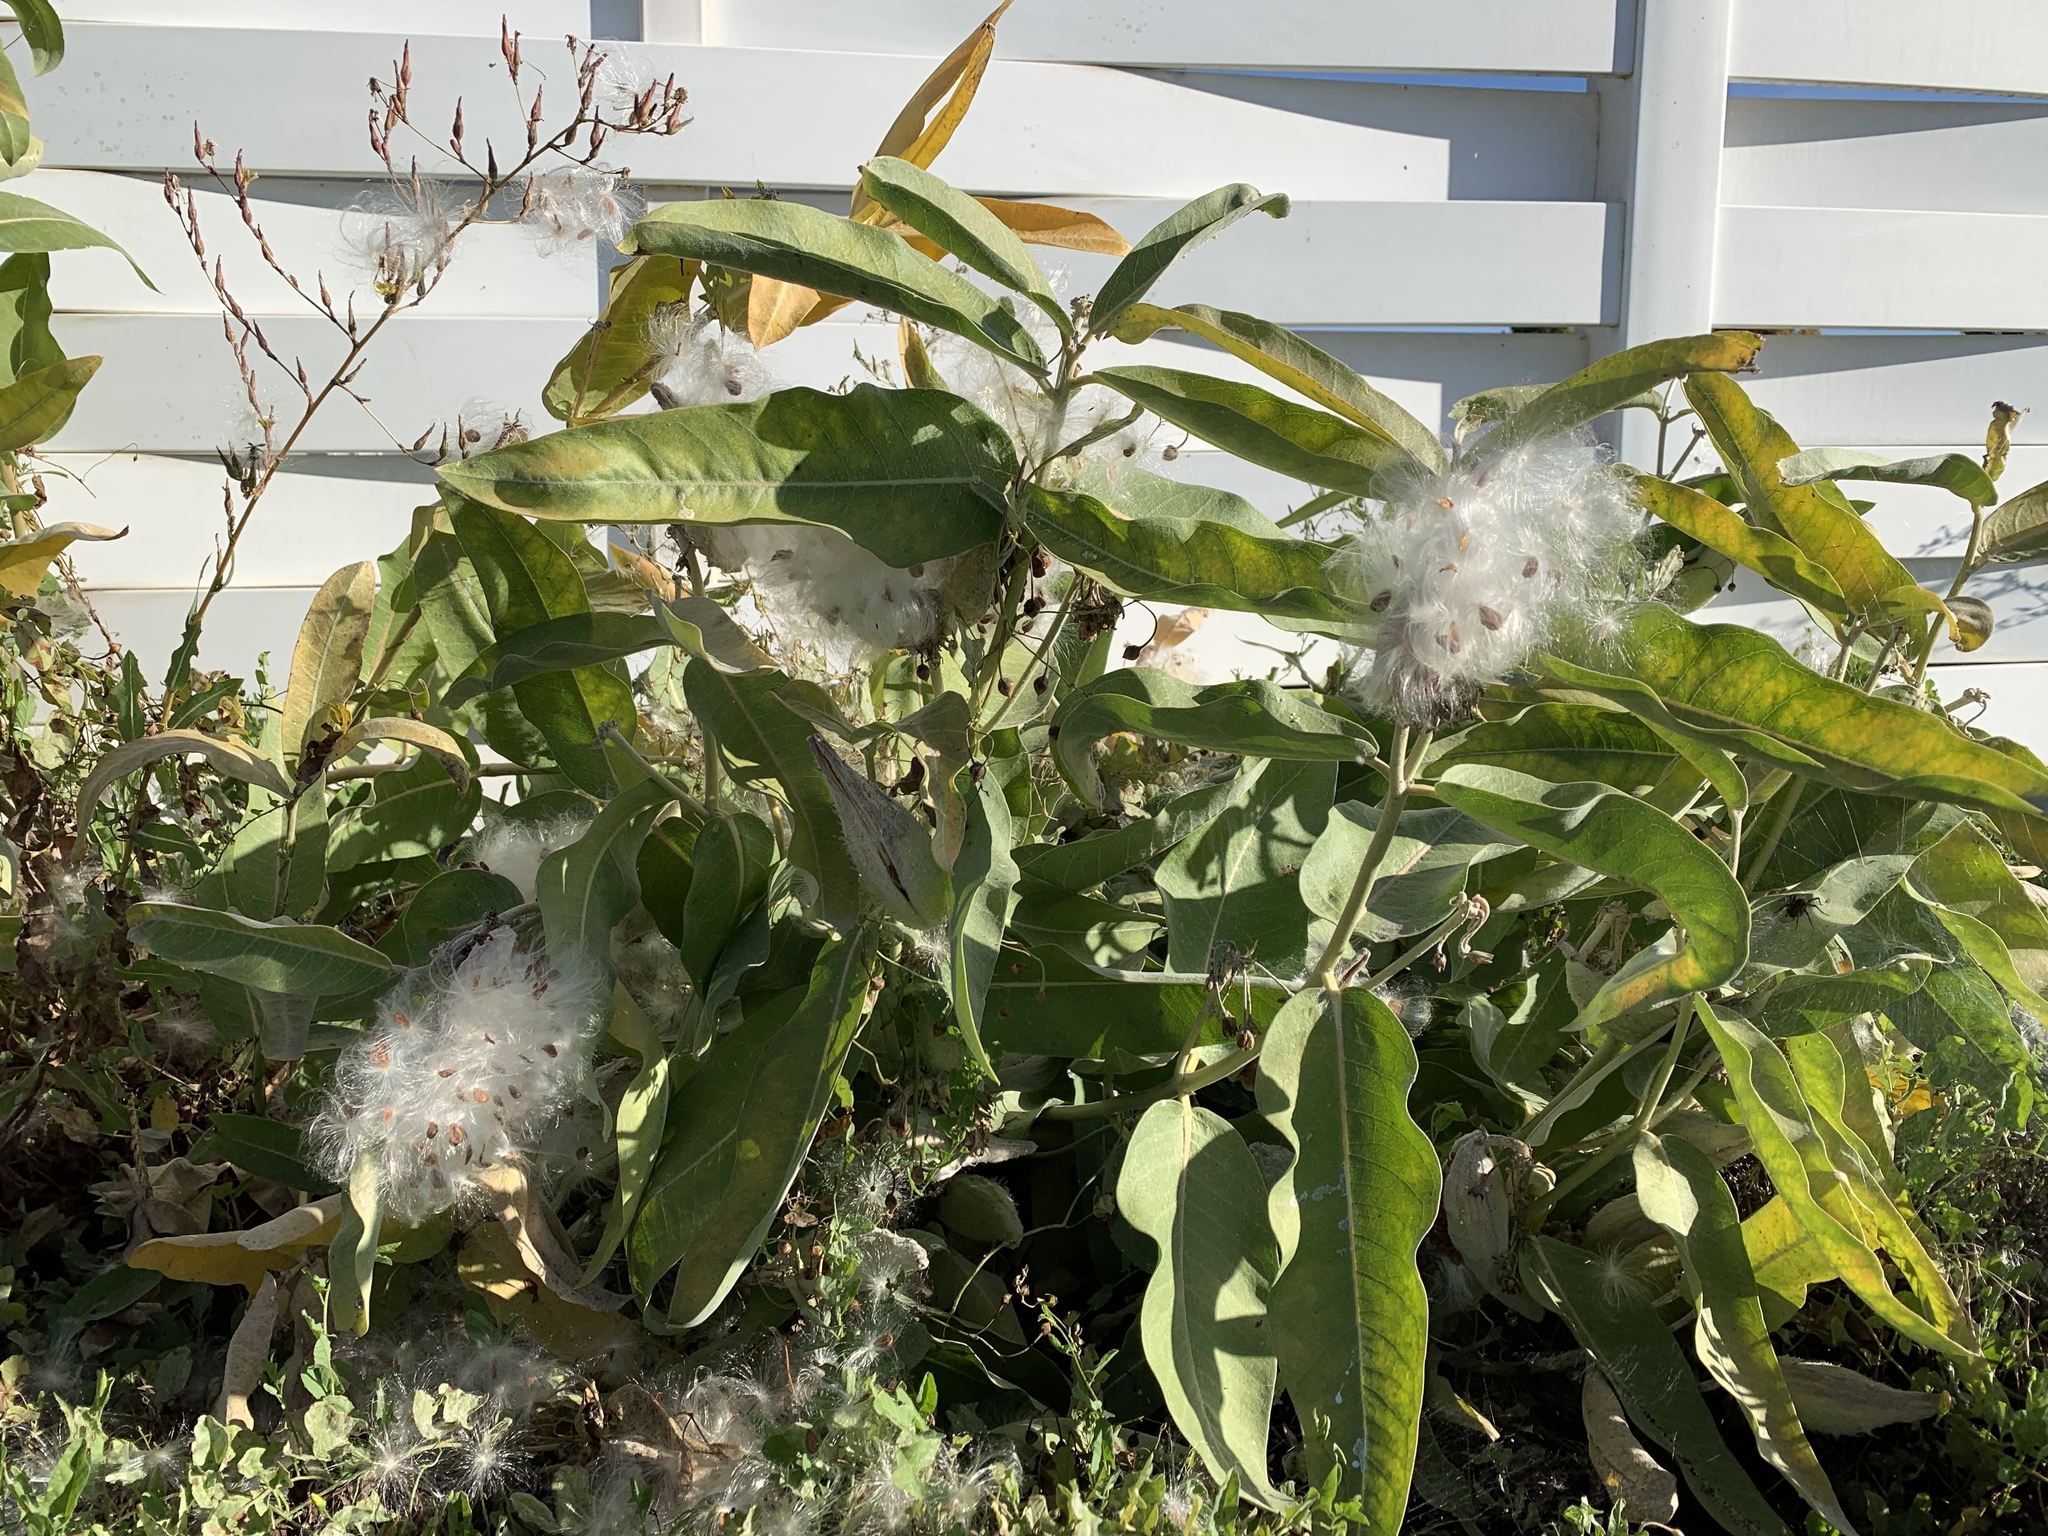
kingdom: Plantae
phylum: Tracheophyta
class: Magnoliopsida
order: Gentianales
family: Apocynaceae
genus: Asclepias
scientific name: Asclepias speciosa
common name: Showy milkweed
